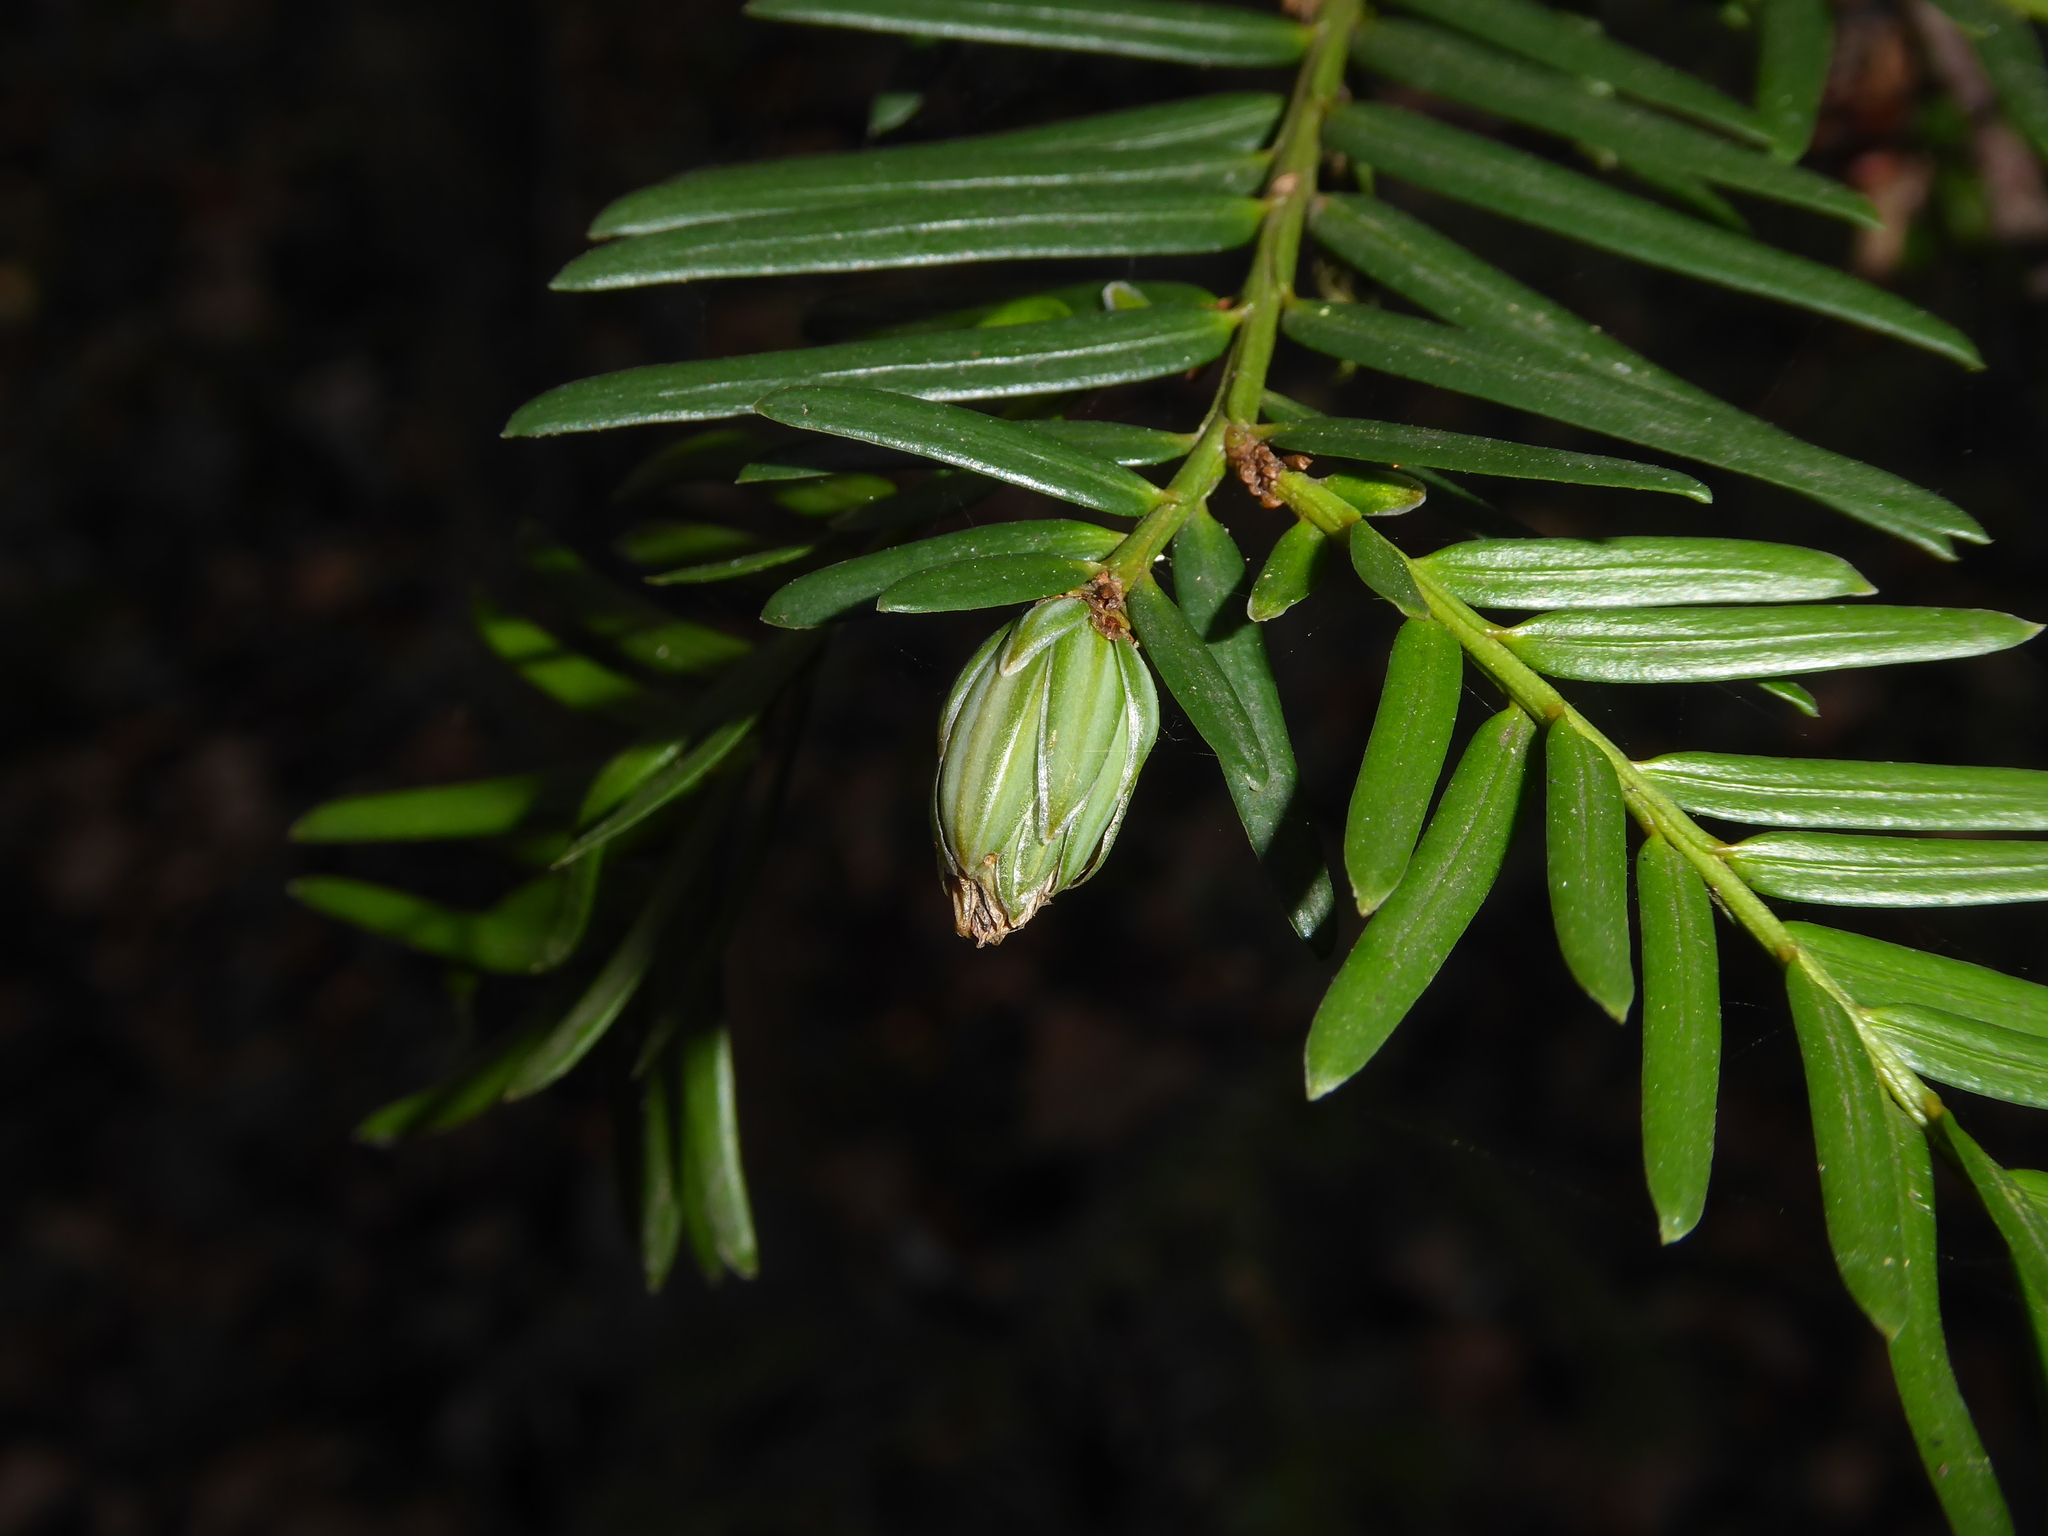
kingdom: Animalia
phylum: Arthropoda
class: Insecta
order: Diptera
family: Cecidomyiidae
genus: Taxomyia
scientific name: Taxomyia taxi
